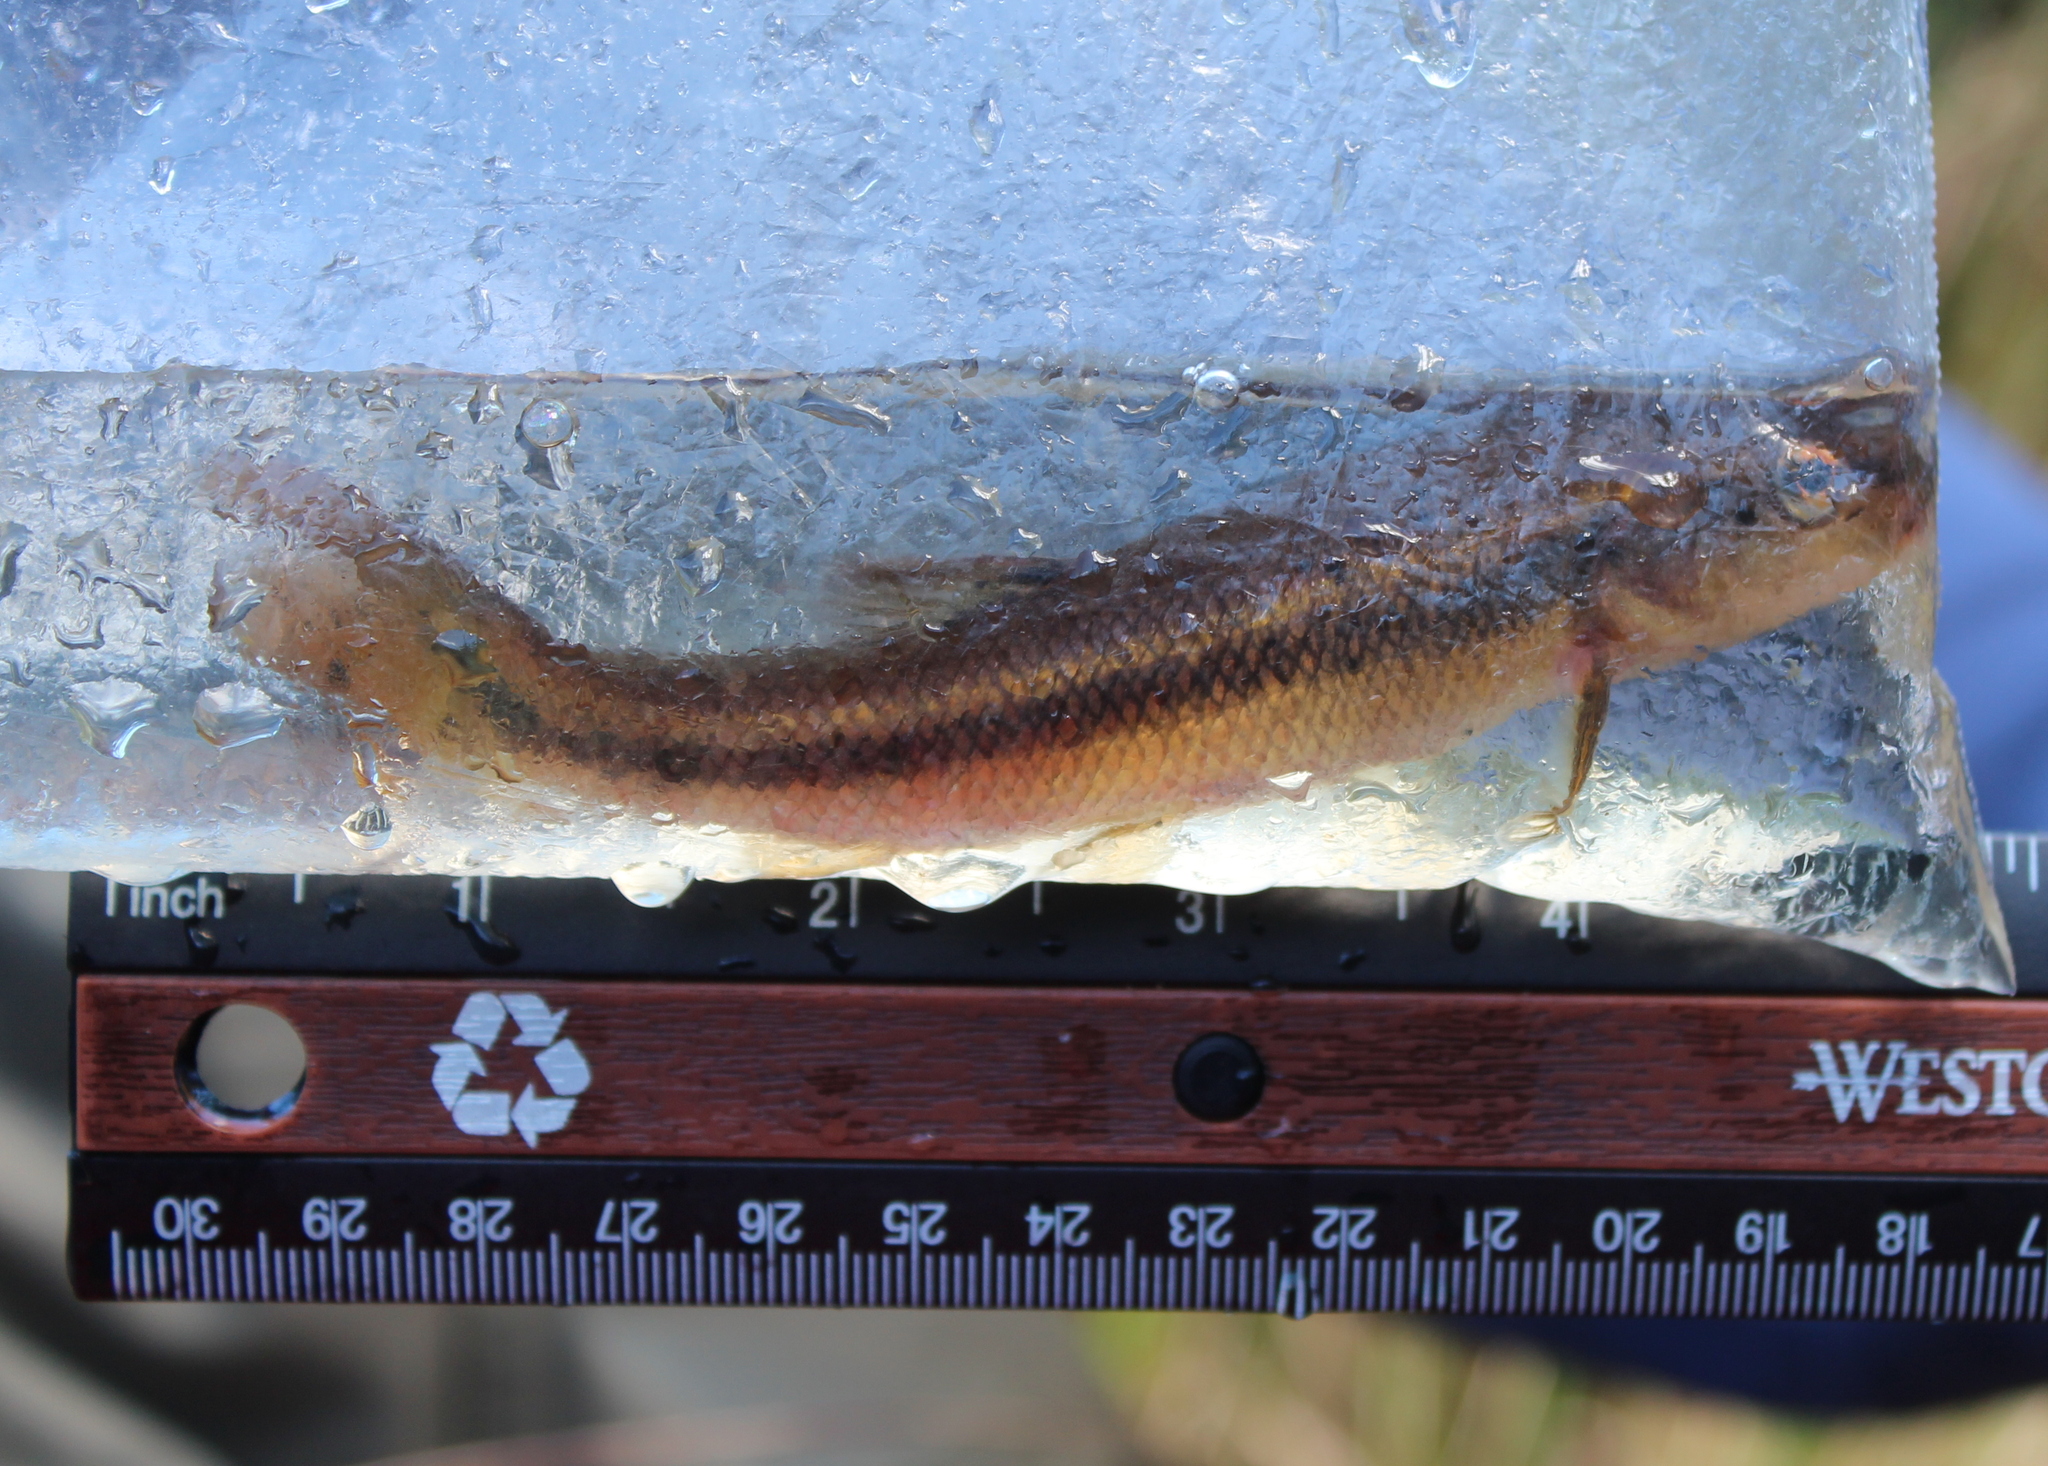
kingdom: Animalia
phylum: Chordata
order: Cypriniformes
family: Cyprinidae
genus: Semotilus
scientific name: Semotilus atromaculatus
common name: Creek chub
